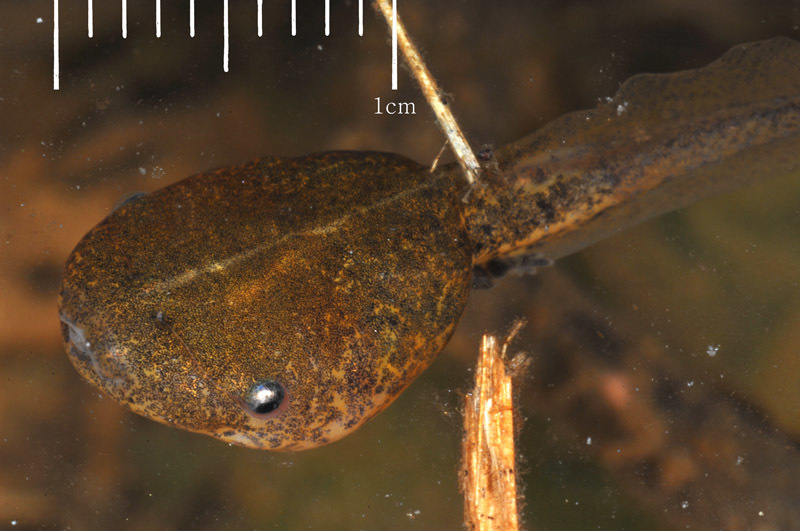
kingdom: Animalia
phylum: Chordata
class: Amphibia
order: Anura
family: Microhylidae
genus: Kaloula
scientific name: Kaloula borealis
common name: Boreal digging frog
